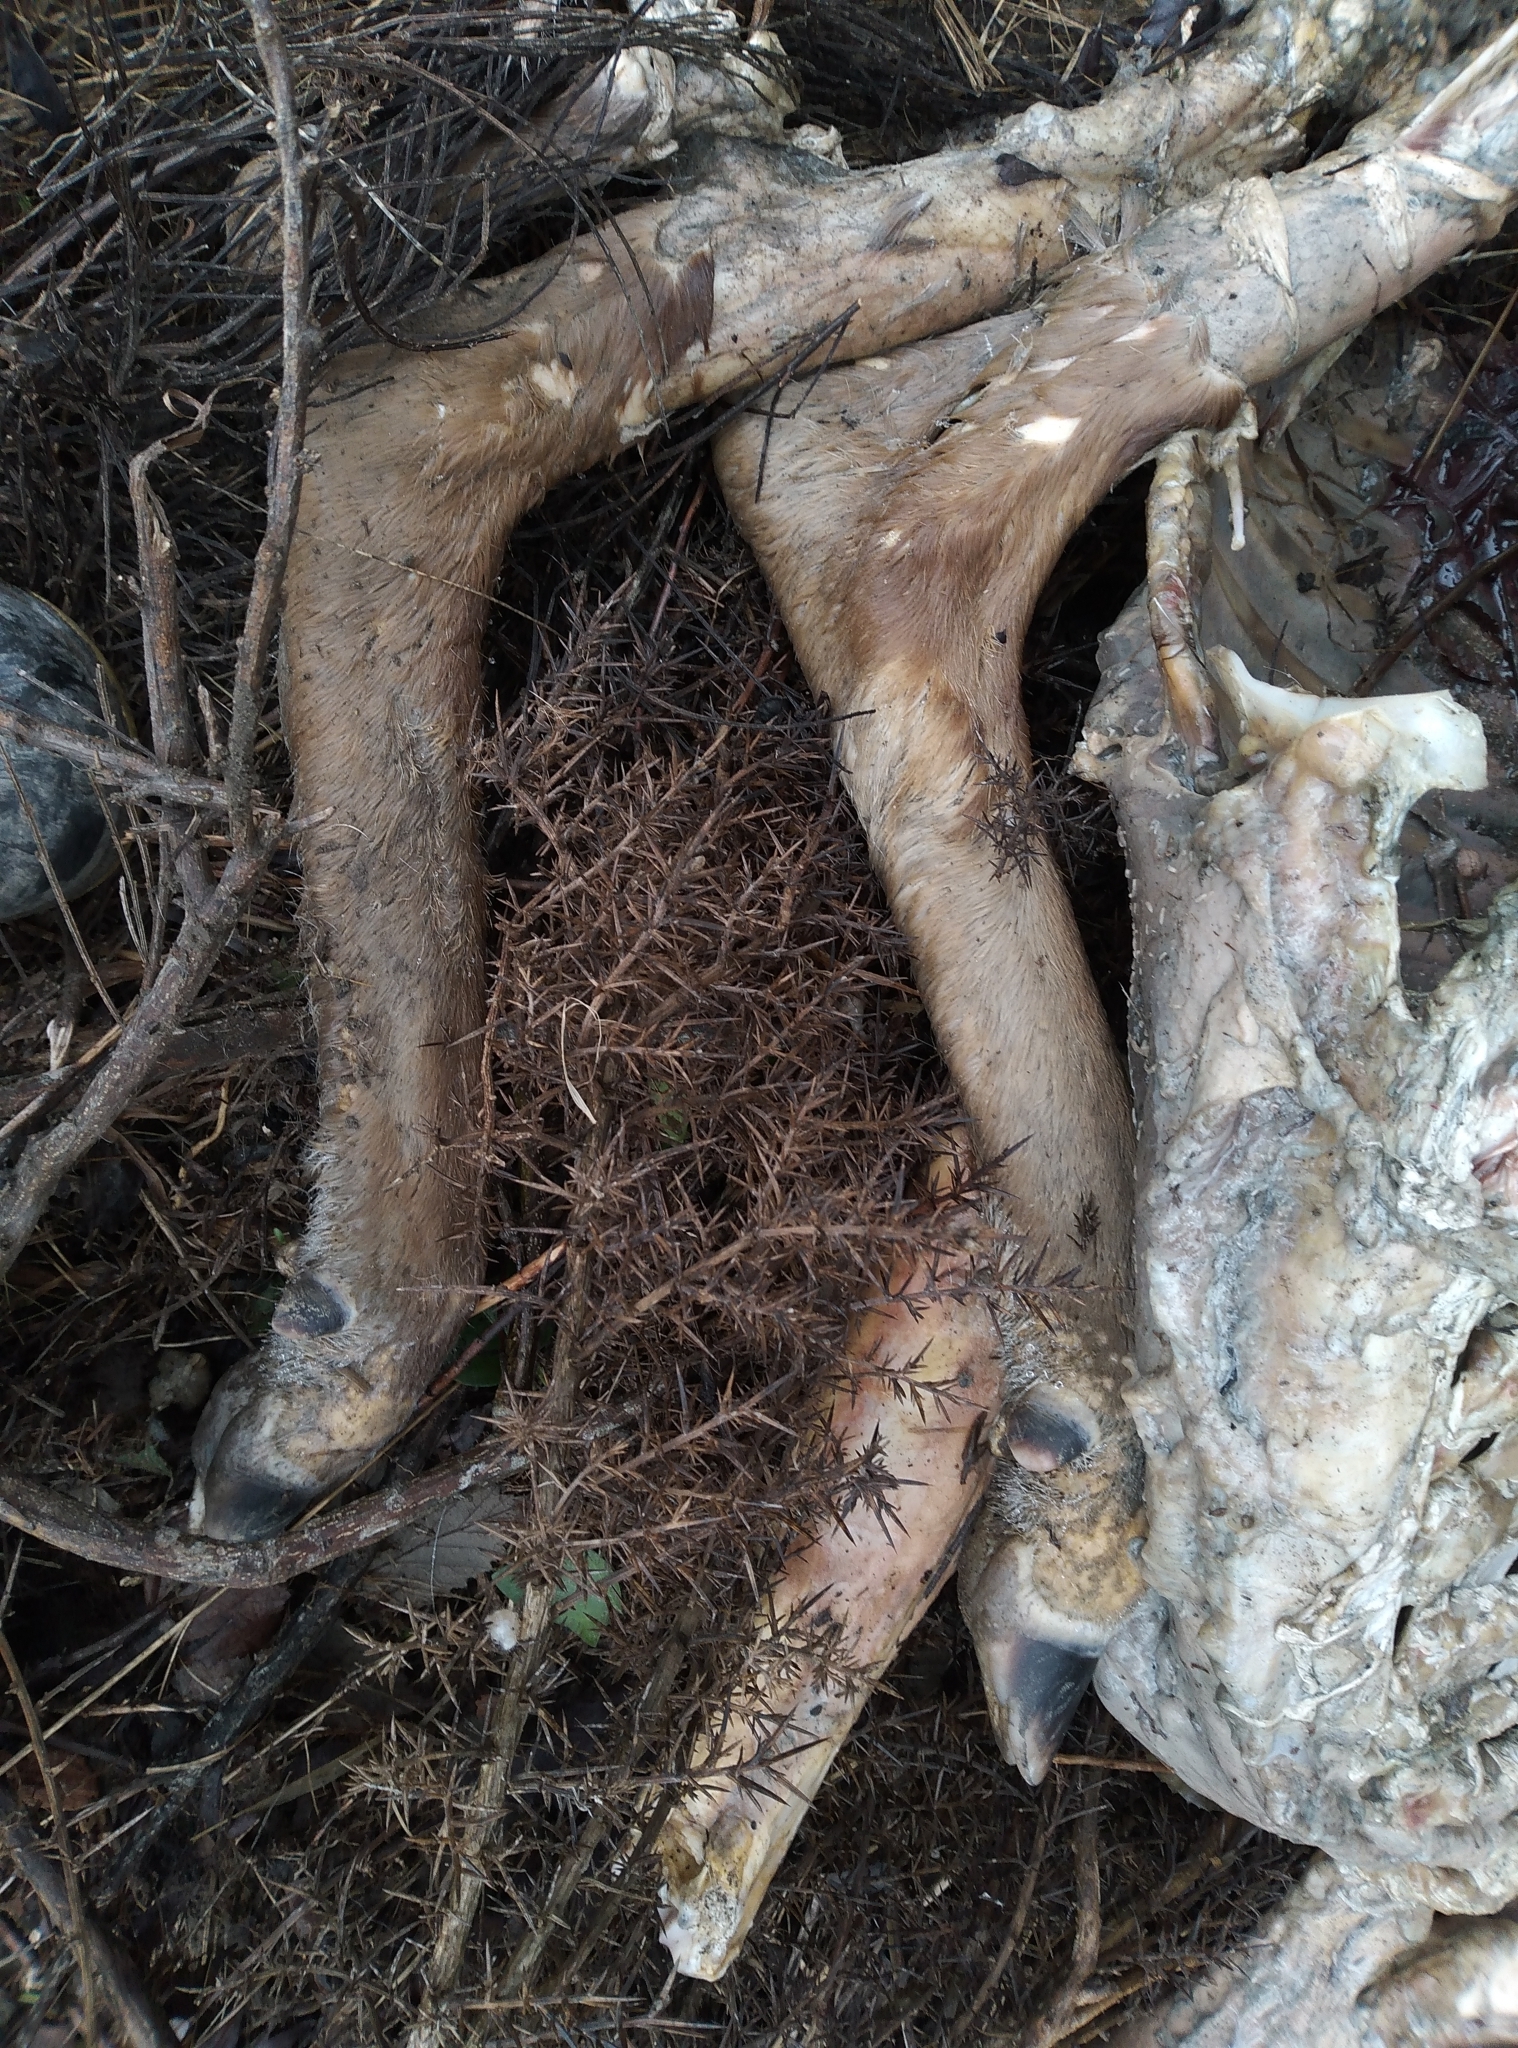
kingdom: Animalia
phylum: Chordata
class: Mammalia
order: Artiodactyla
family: Cervidae
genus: Cervus
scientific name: Cervus elaphus
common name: Red deer
